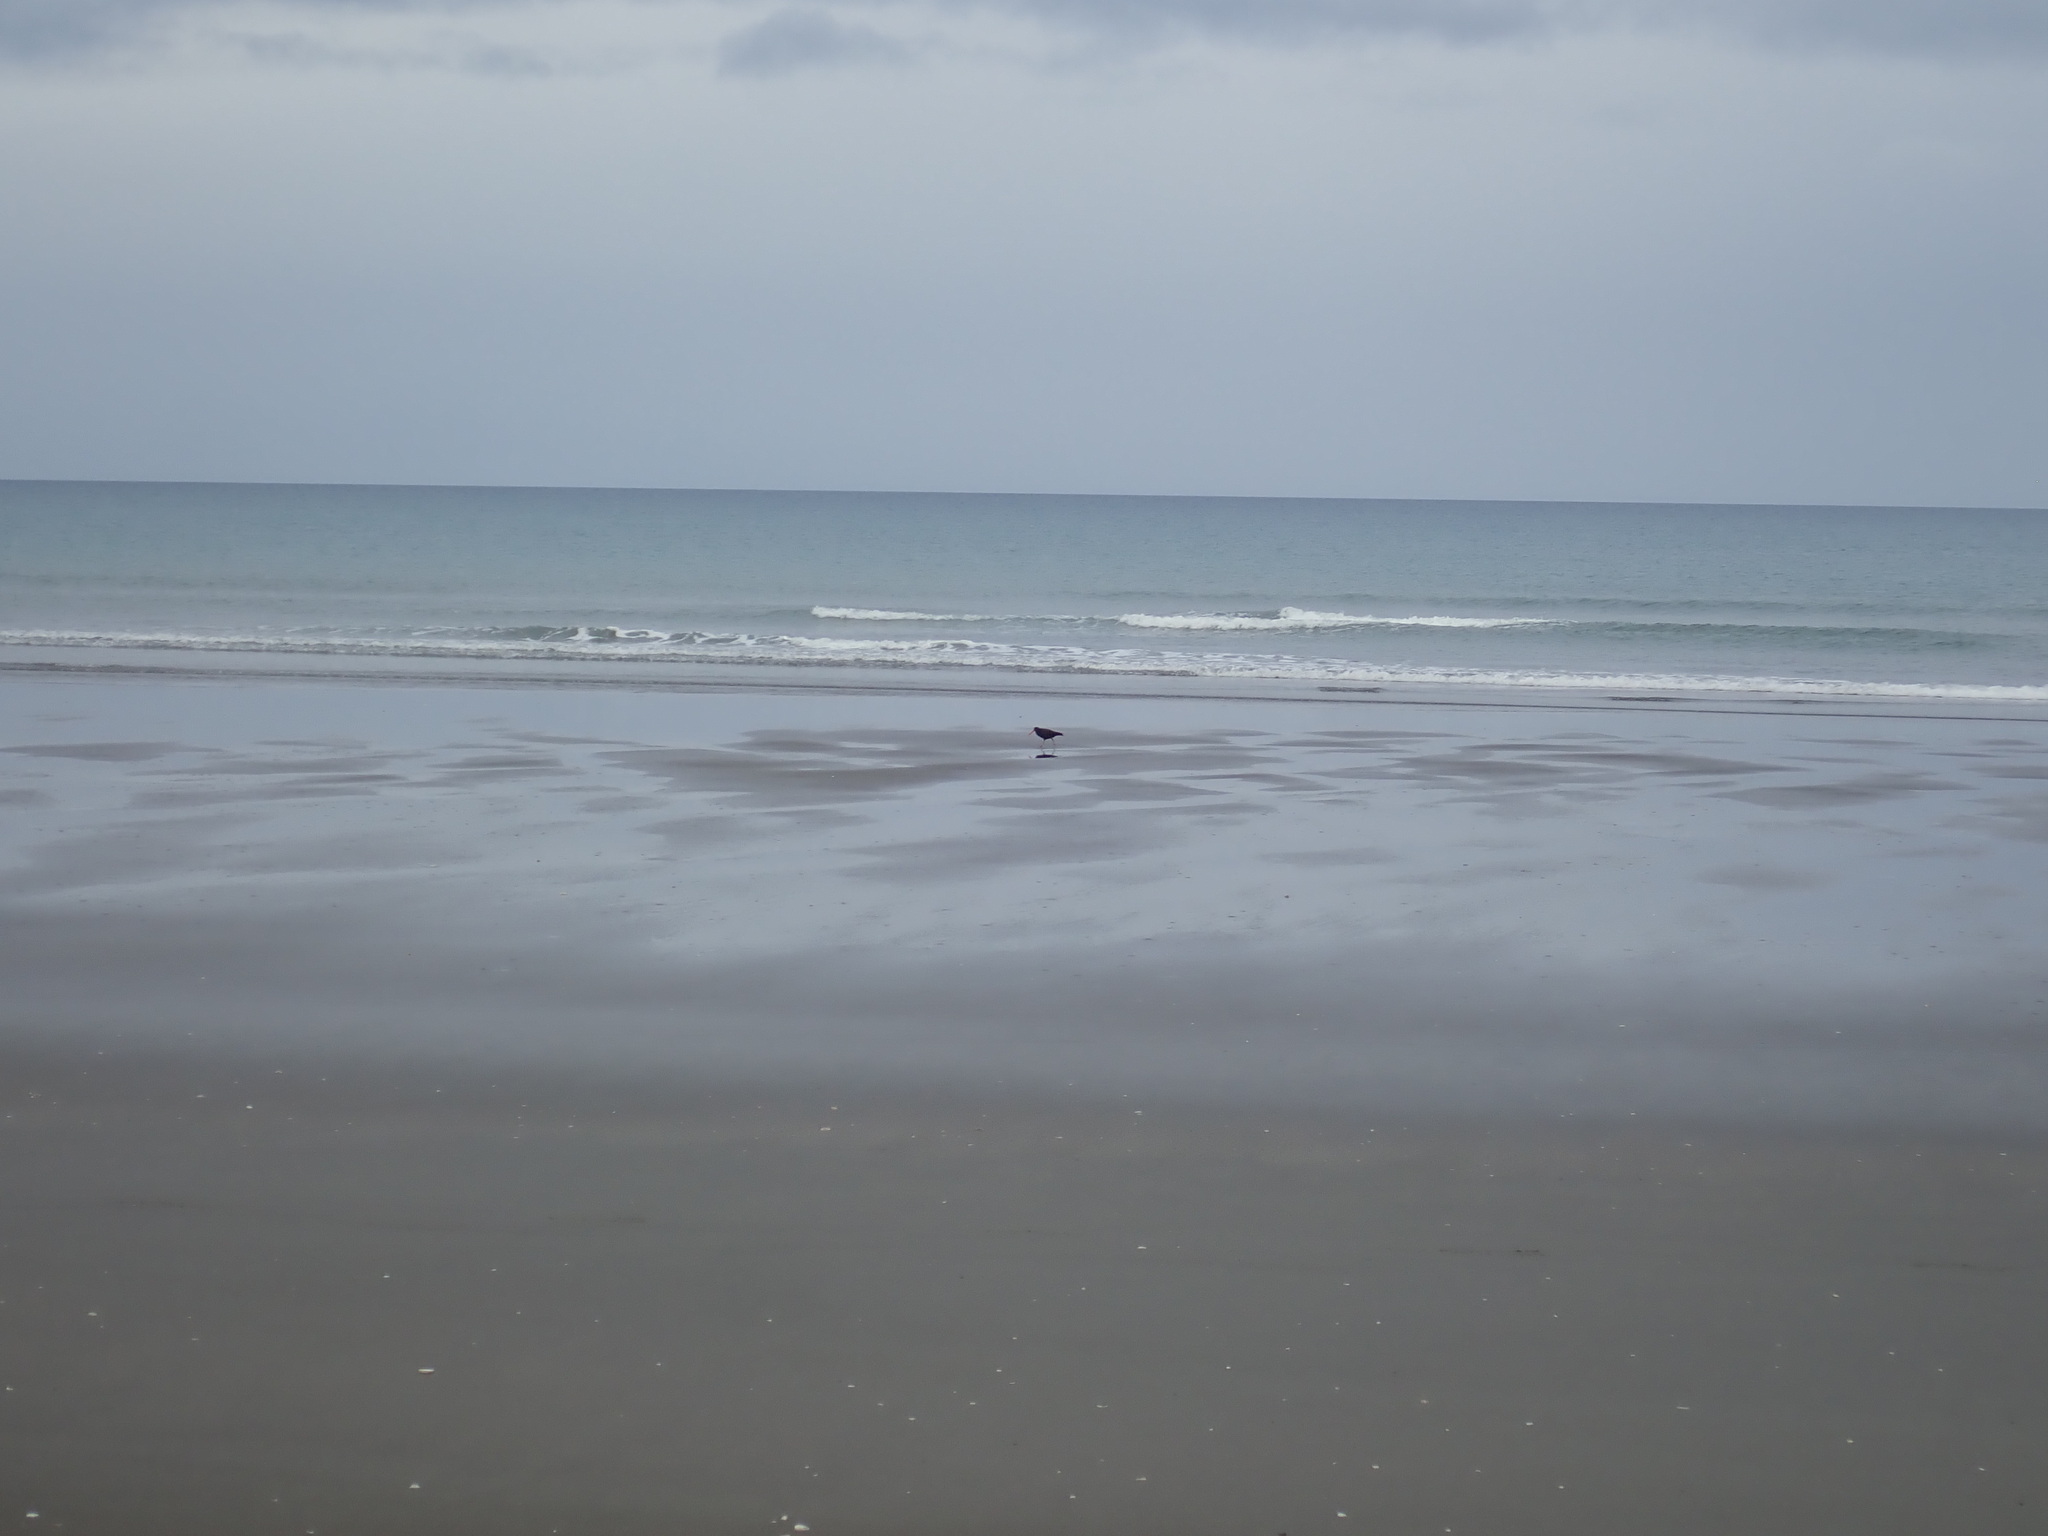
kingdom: Animalia
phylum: Chordata
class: Aves
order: Charadriiformes
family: Haematopodidae
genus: Haematopus
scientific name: Haematopus unicolor
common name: Variable oystercatcher
